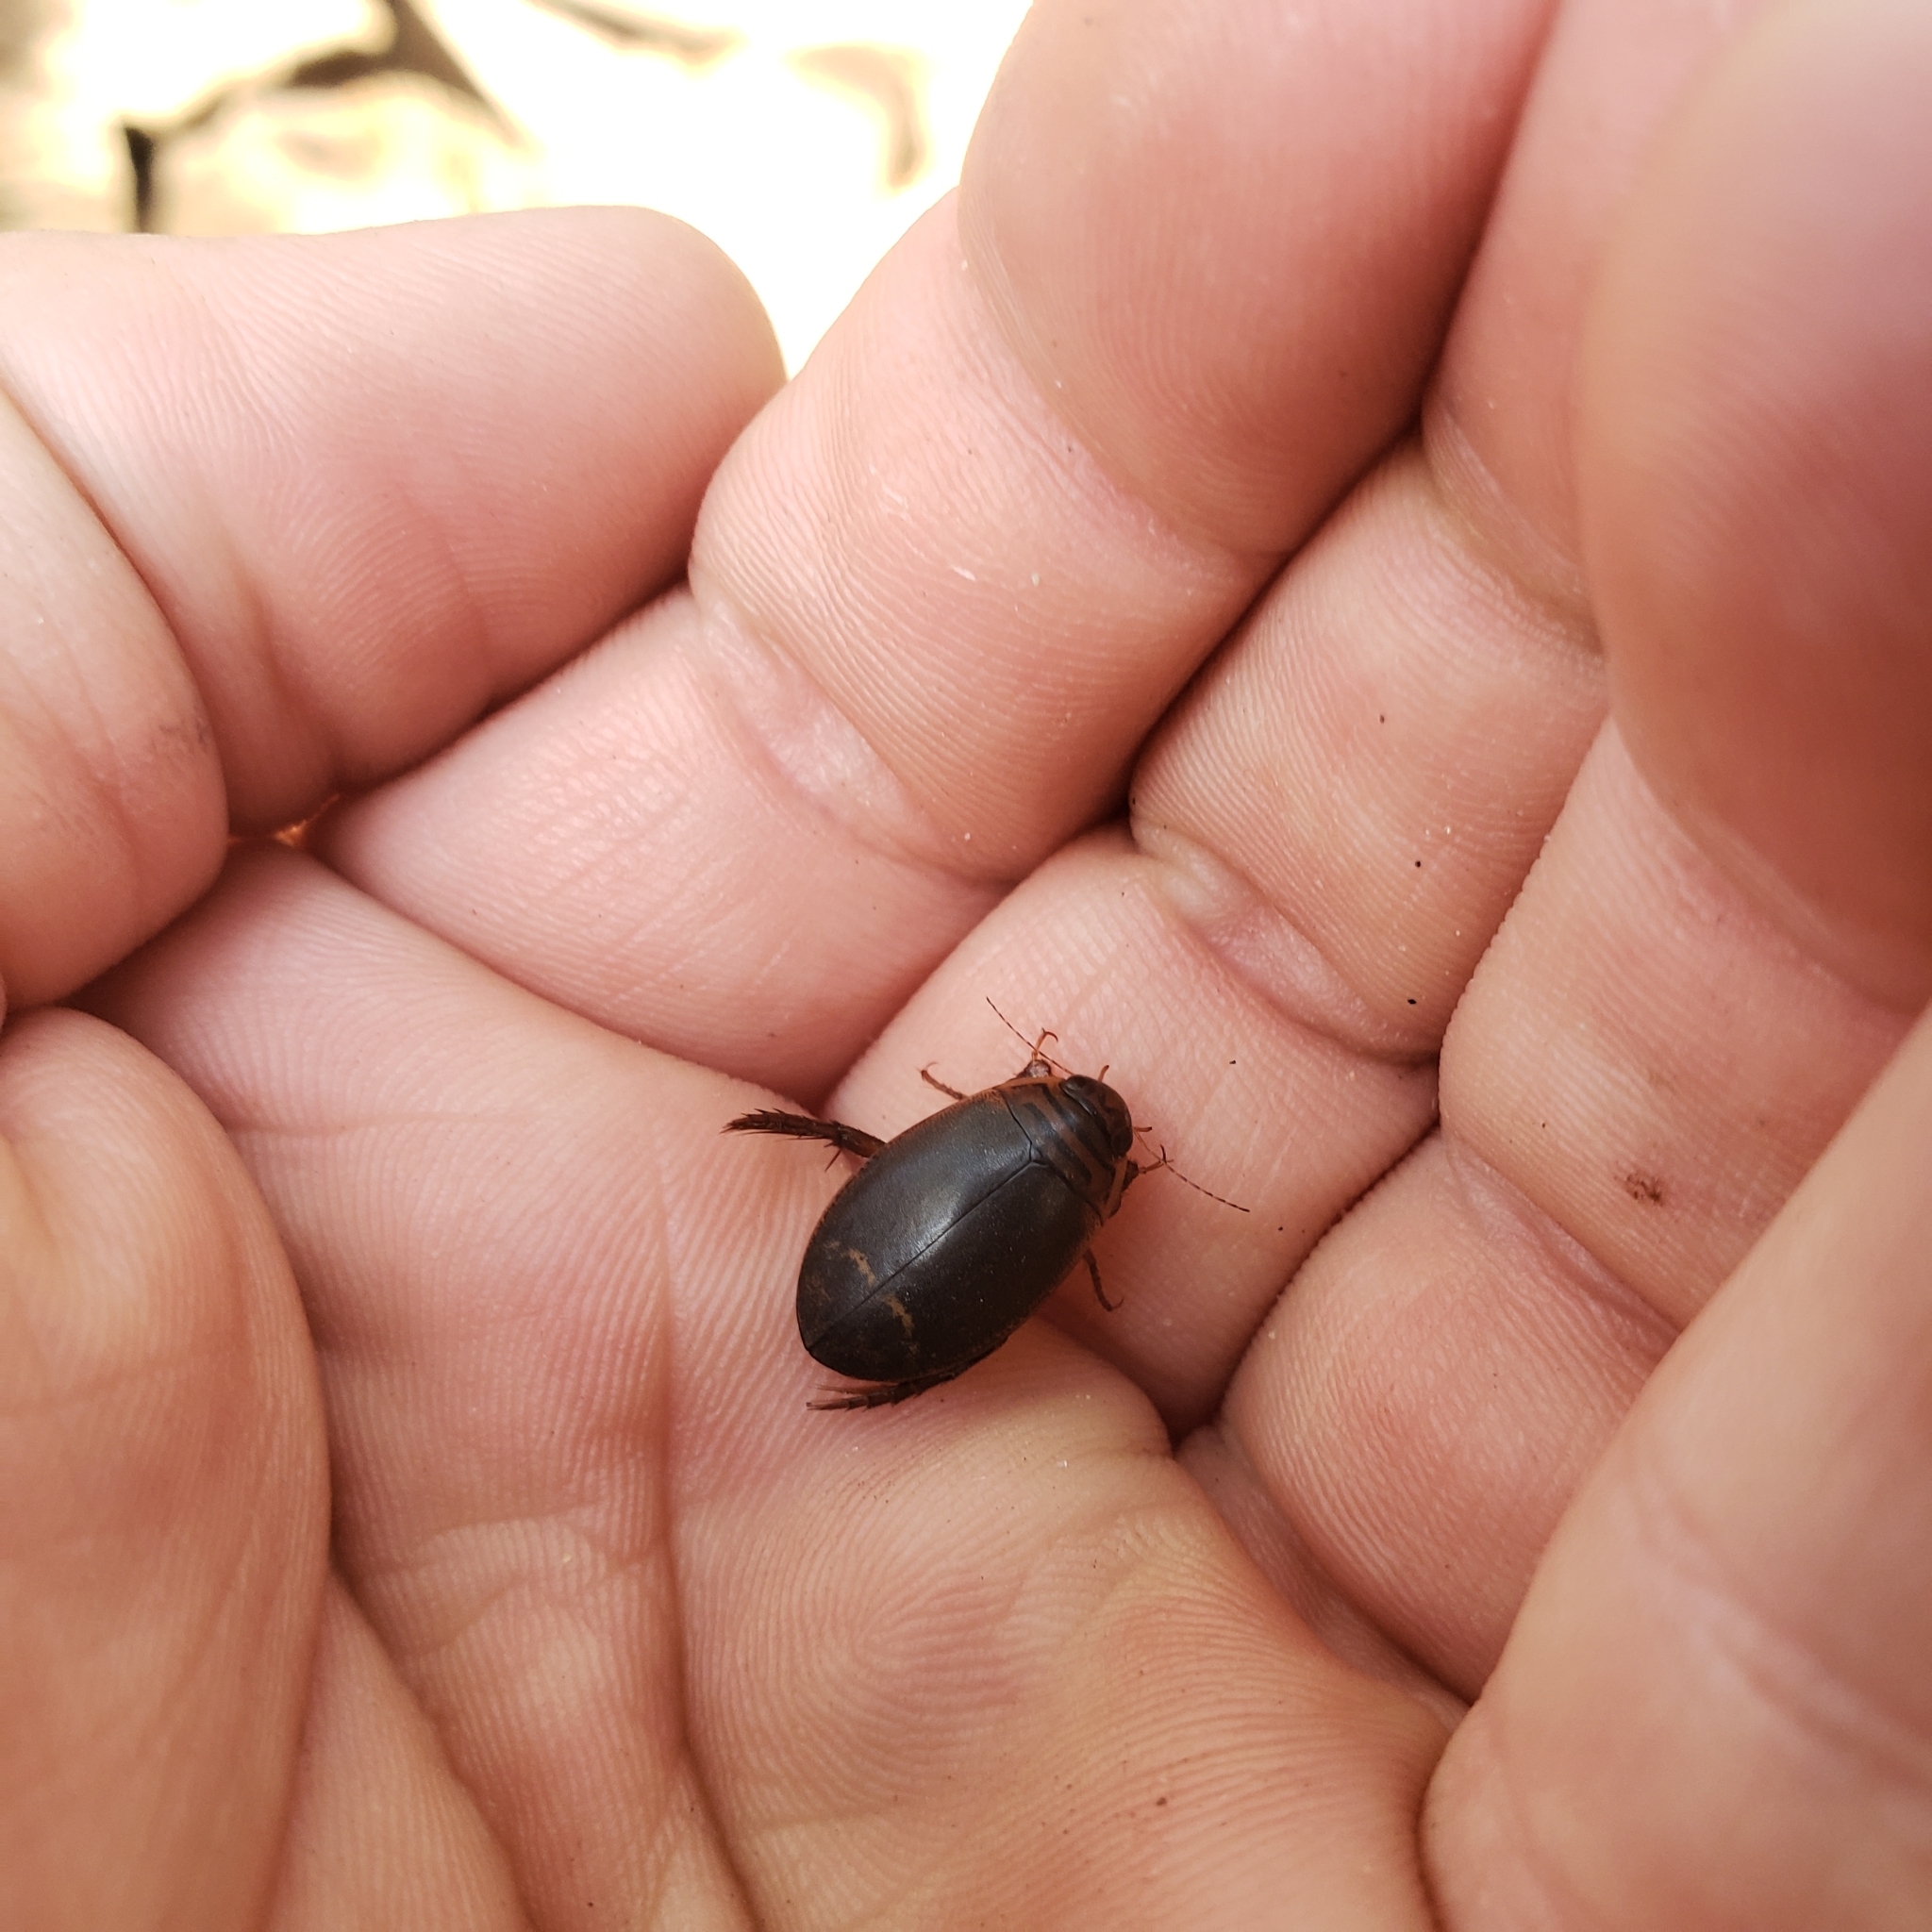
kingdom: Animalia
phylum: Arthropoda
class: Insecta
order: Coleoptera
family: Dytiscidae
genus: Acilius
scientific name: Acilius semisulcatus
